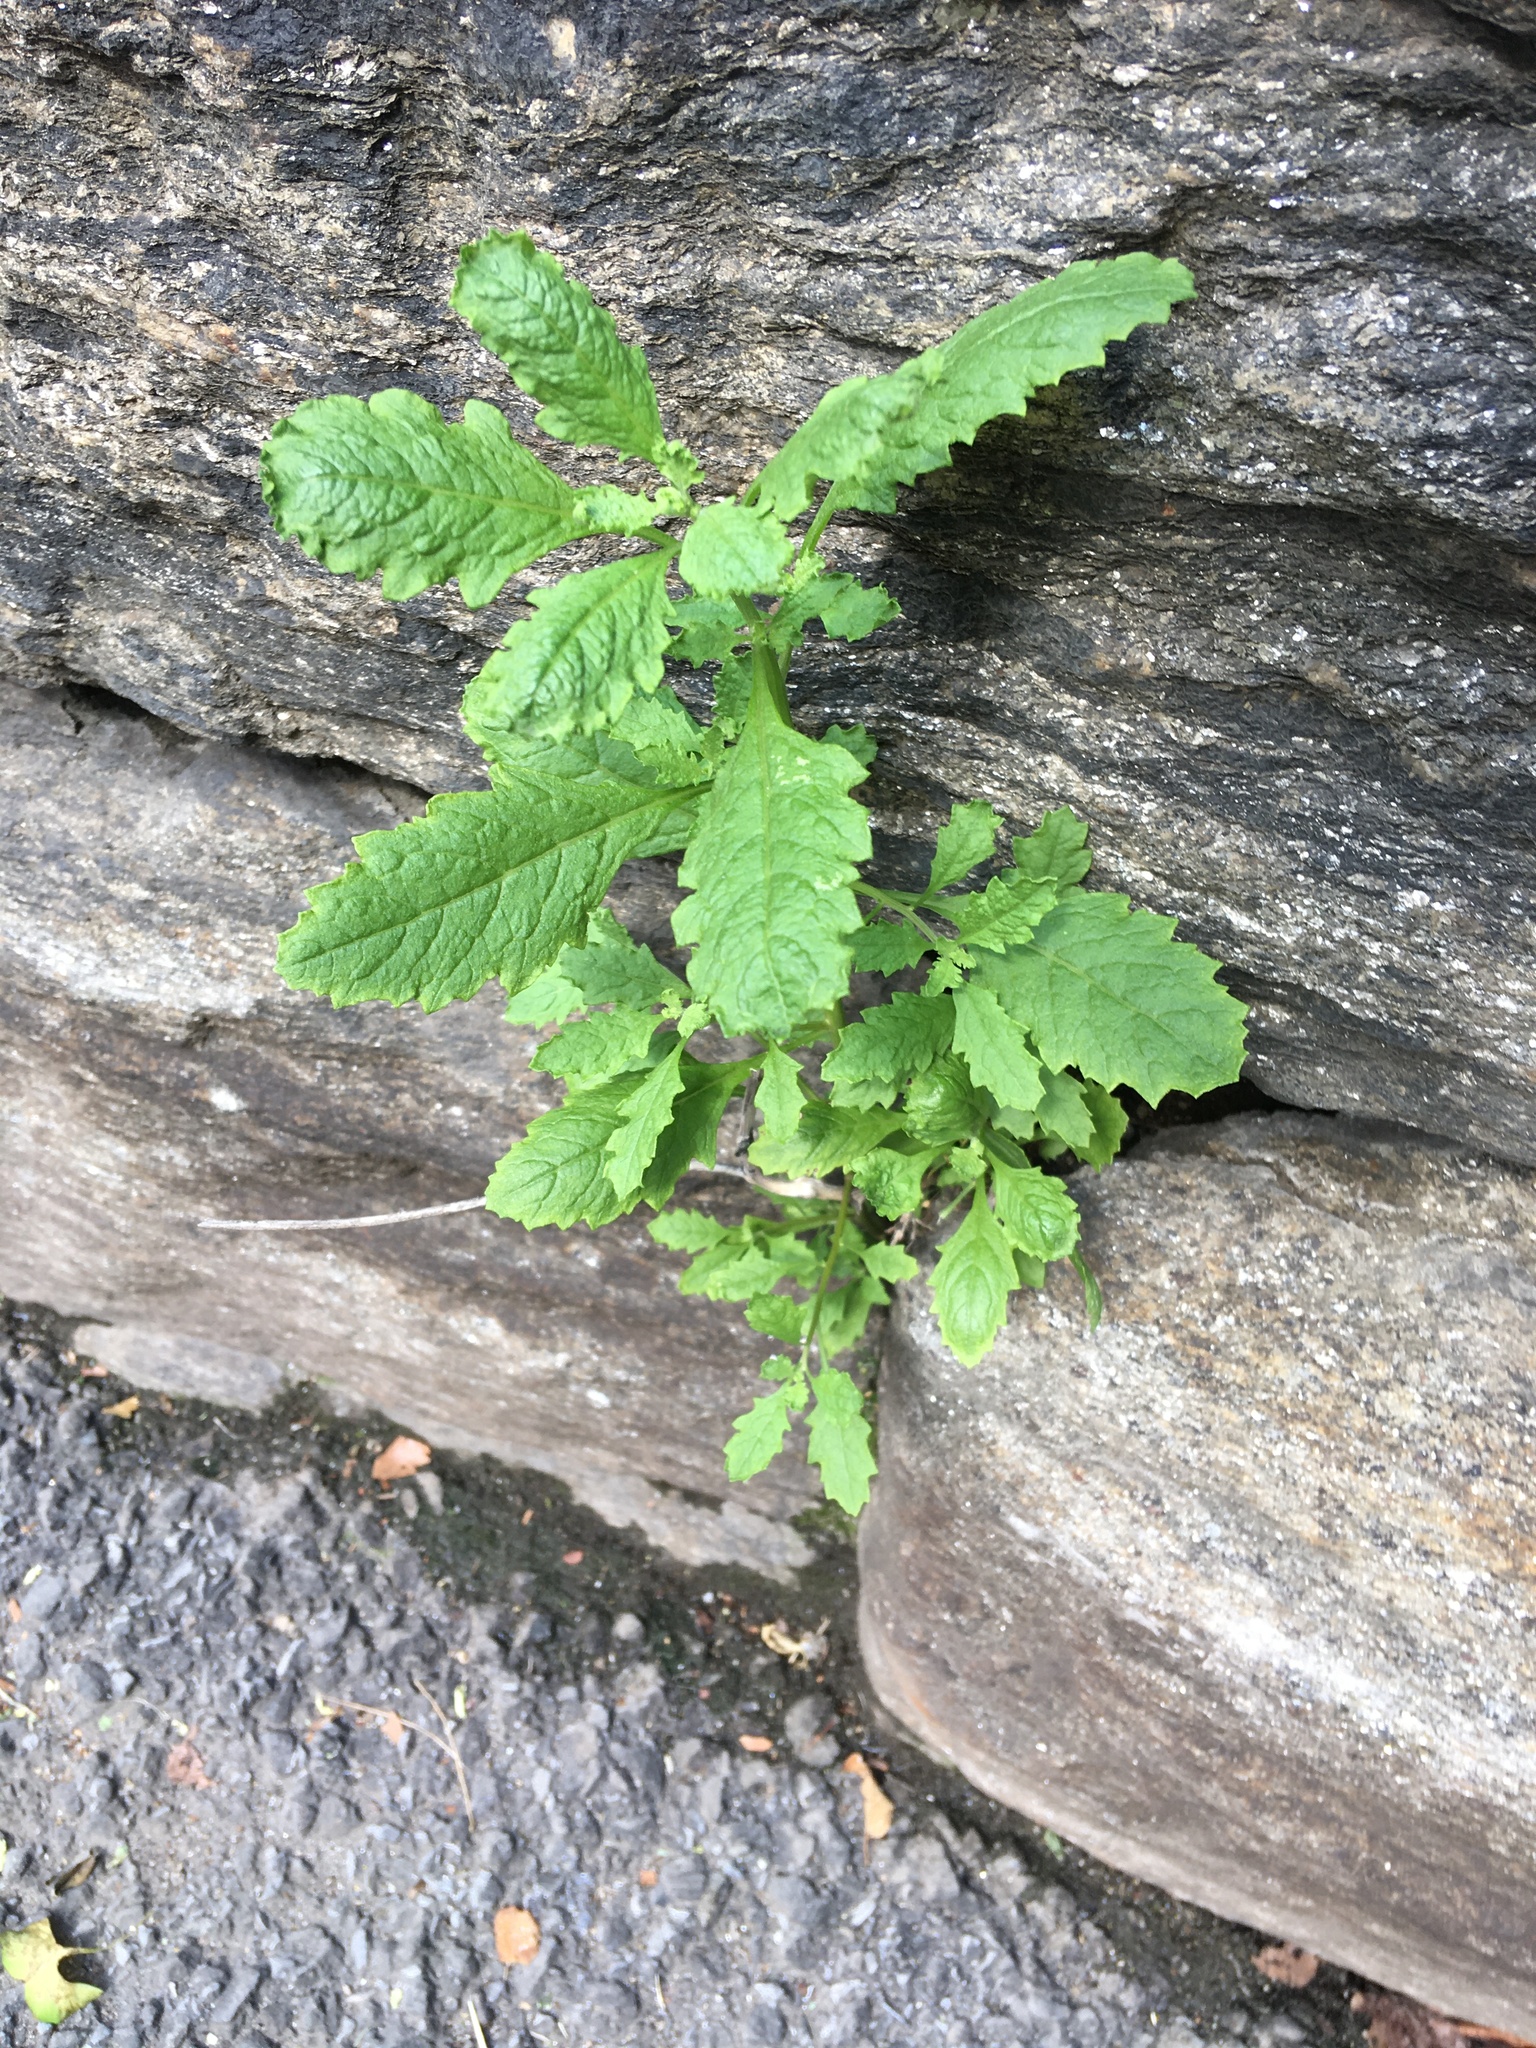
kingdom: Plantae
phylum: Tracheophyta
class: Magnoliopsida
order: Caryophyllales
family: Amaranthaceae
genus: Dysphania
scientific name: Dysphania ambrosioides
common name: Wormseed
